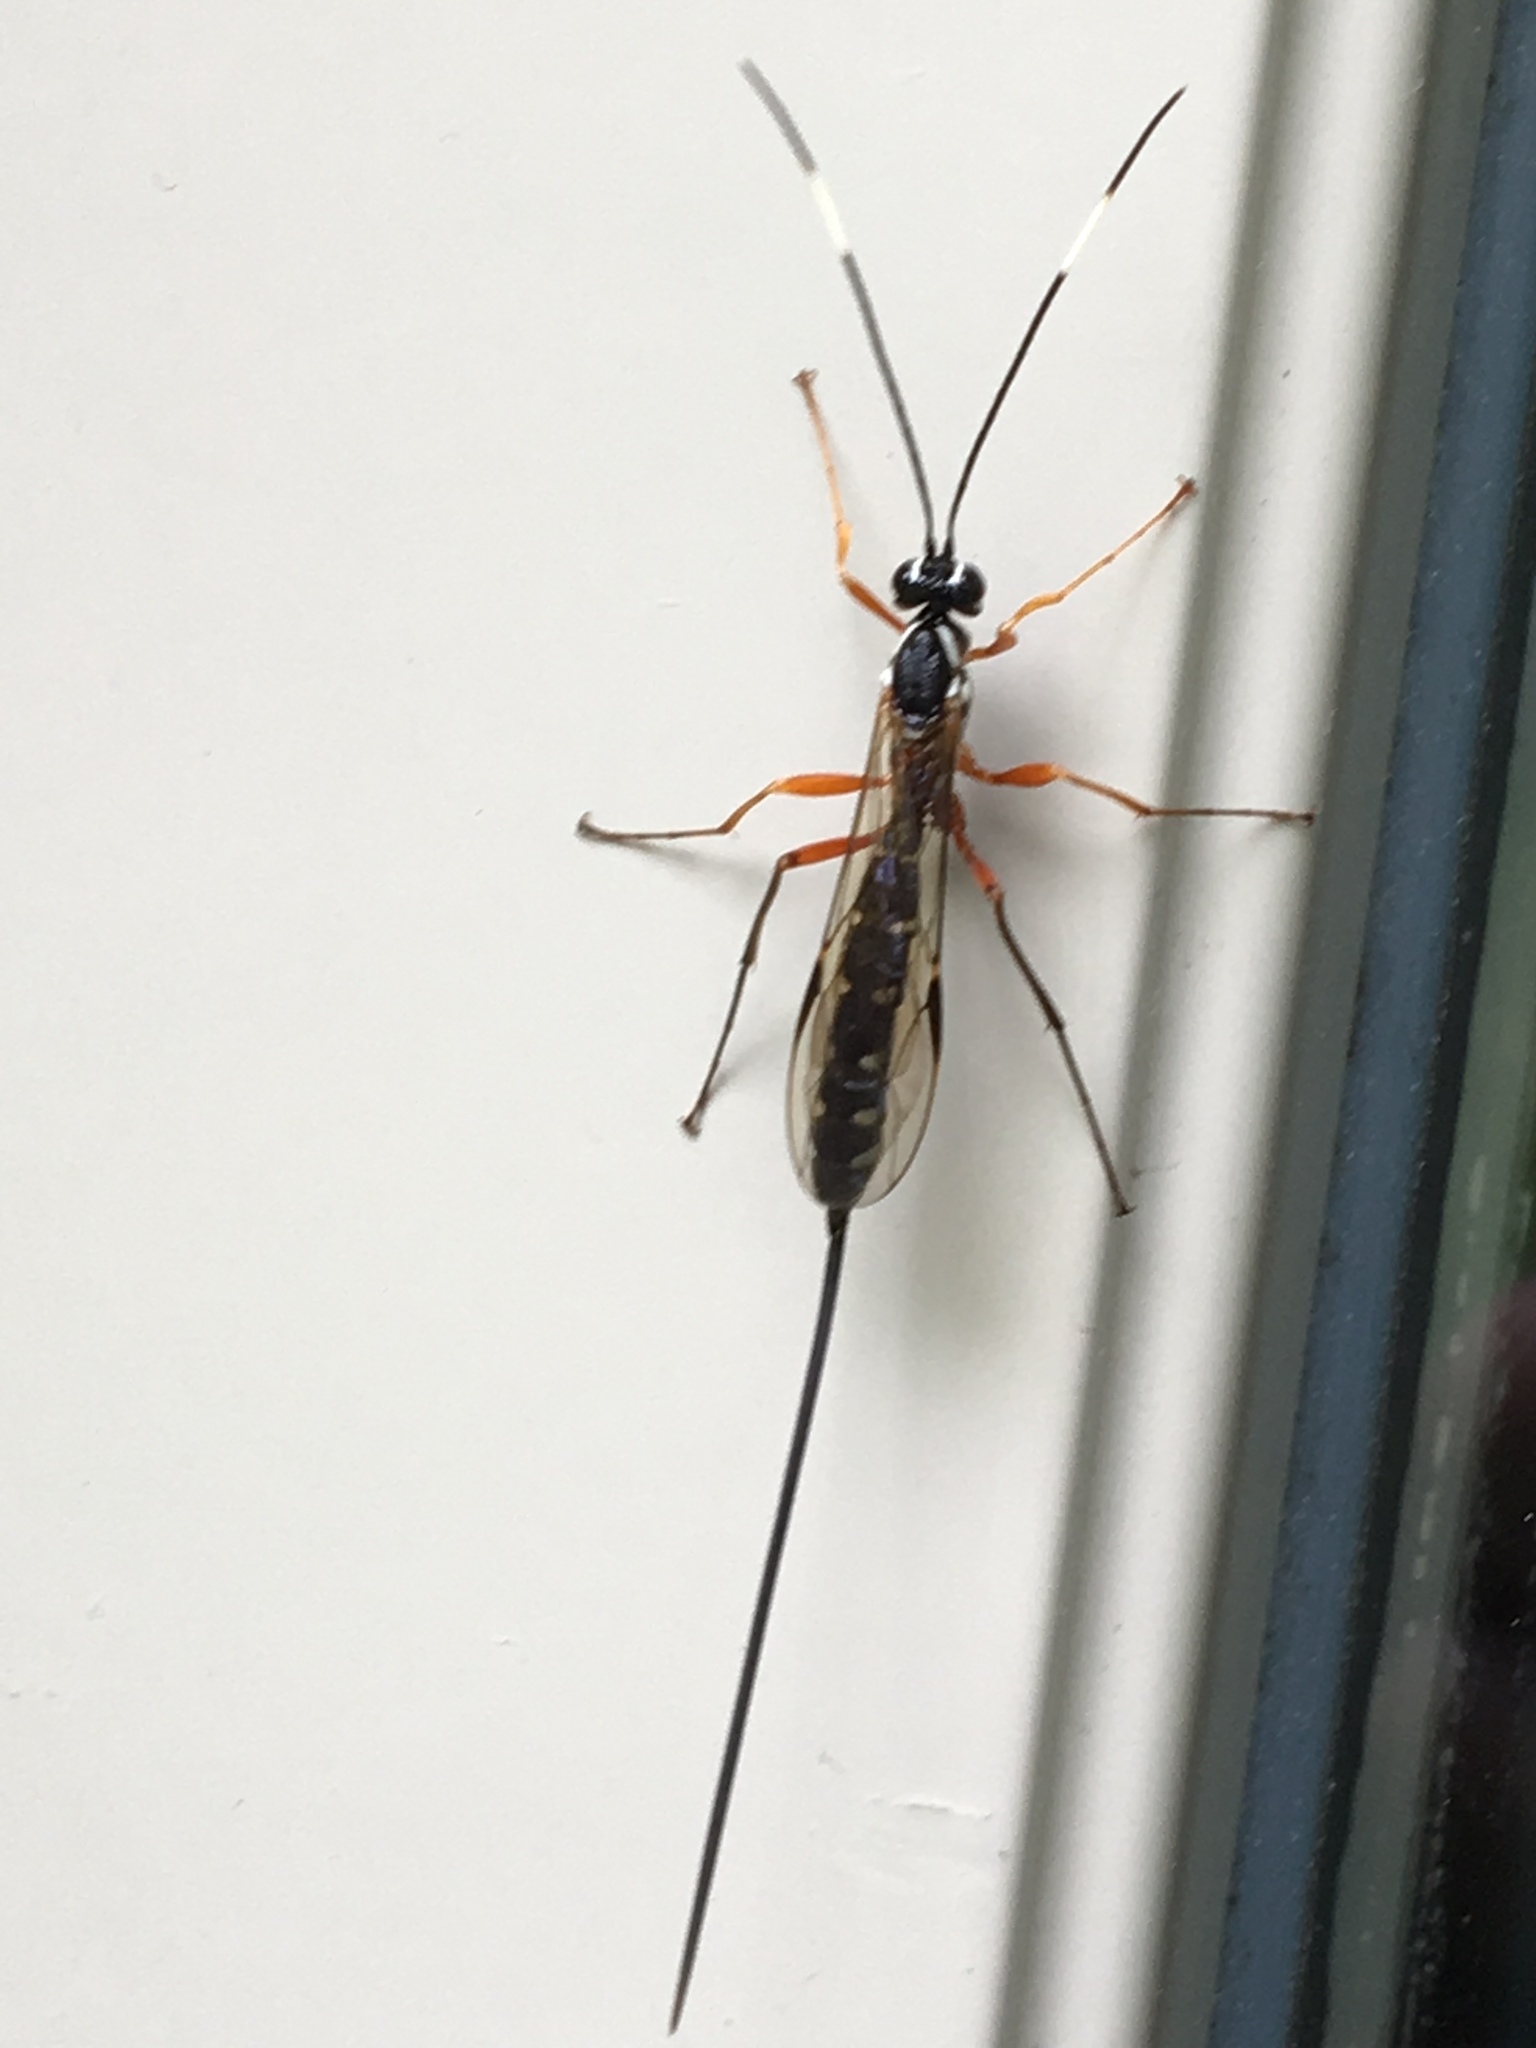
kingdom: Animalia
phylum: Arthropoda
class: Insecta
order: Hymenoptera
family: Ichneumonidae
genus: Rhyssa
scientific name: Rhyssa lineolata
